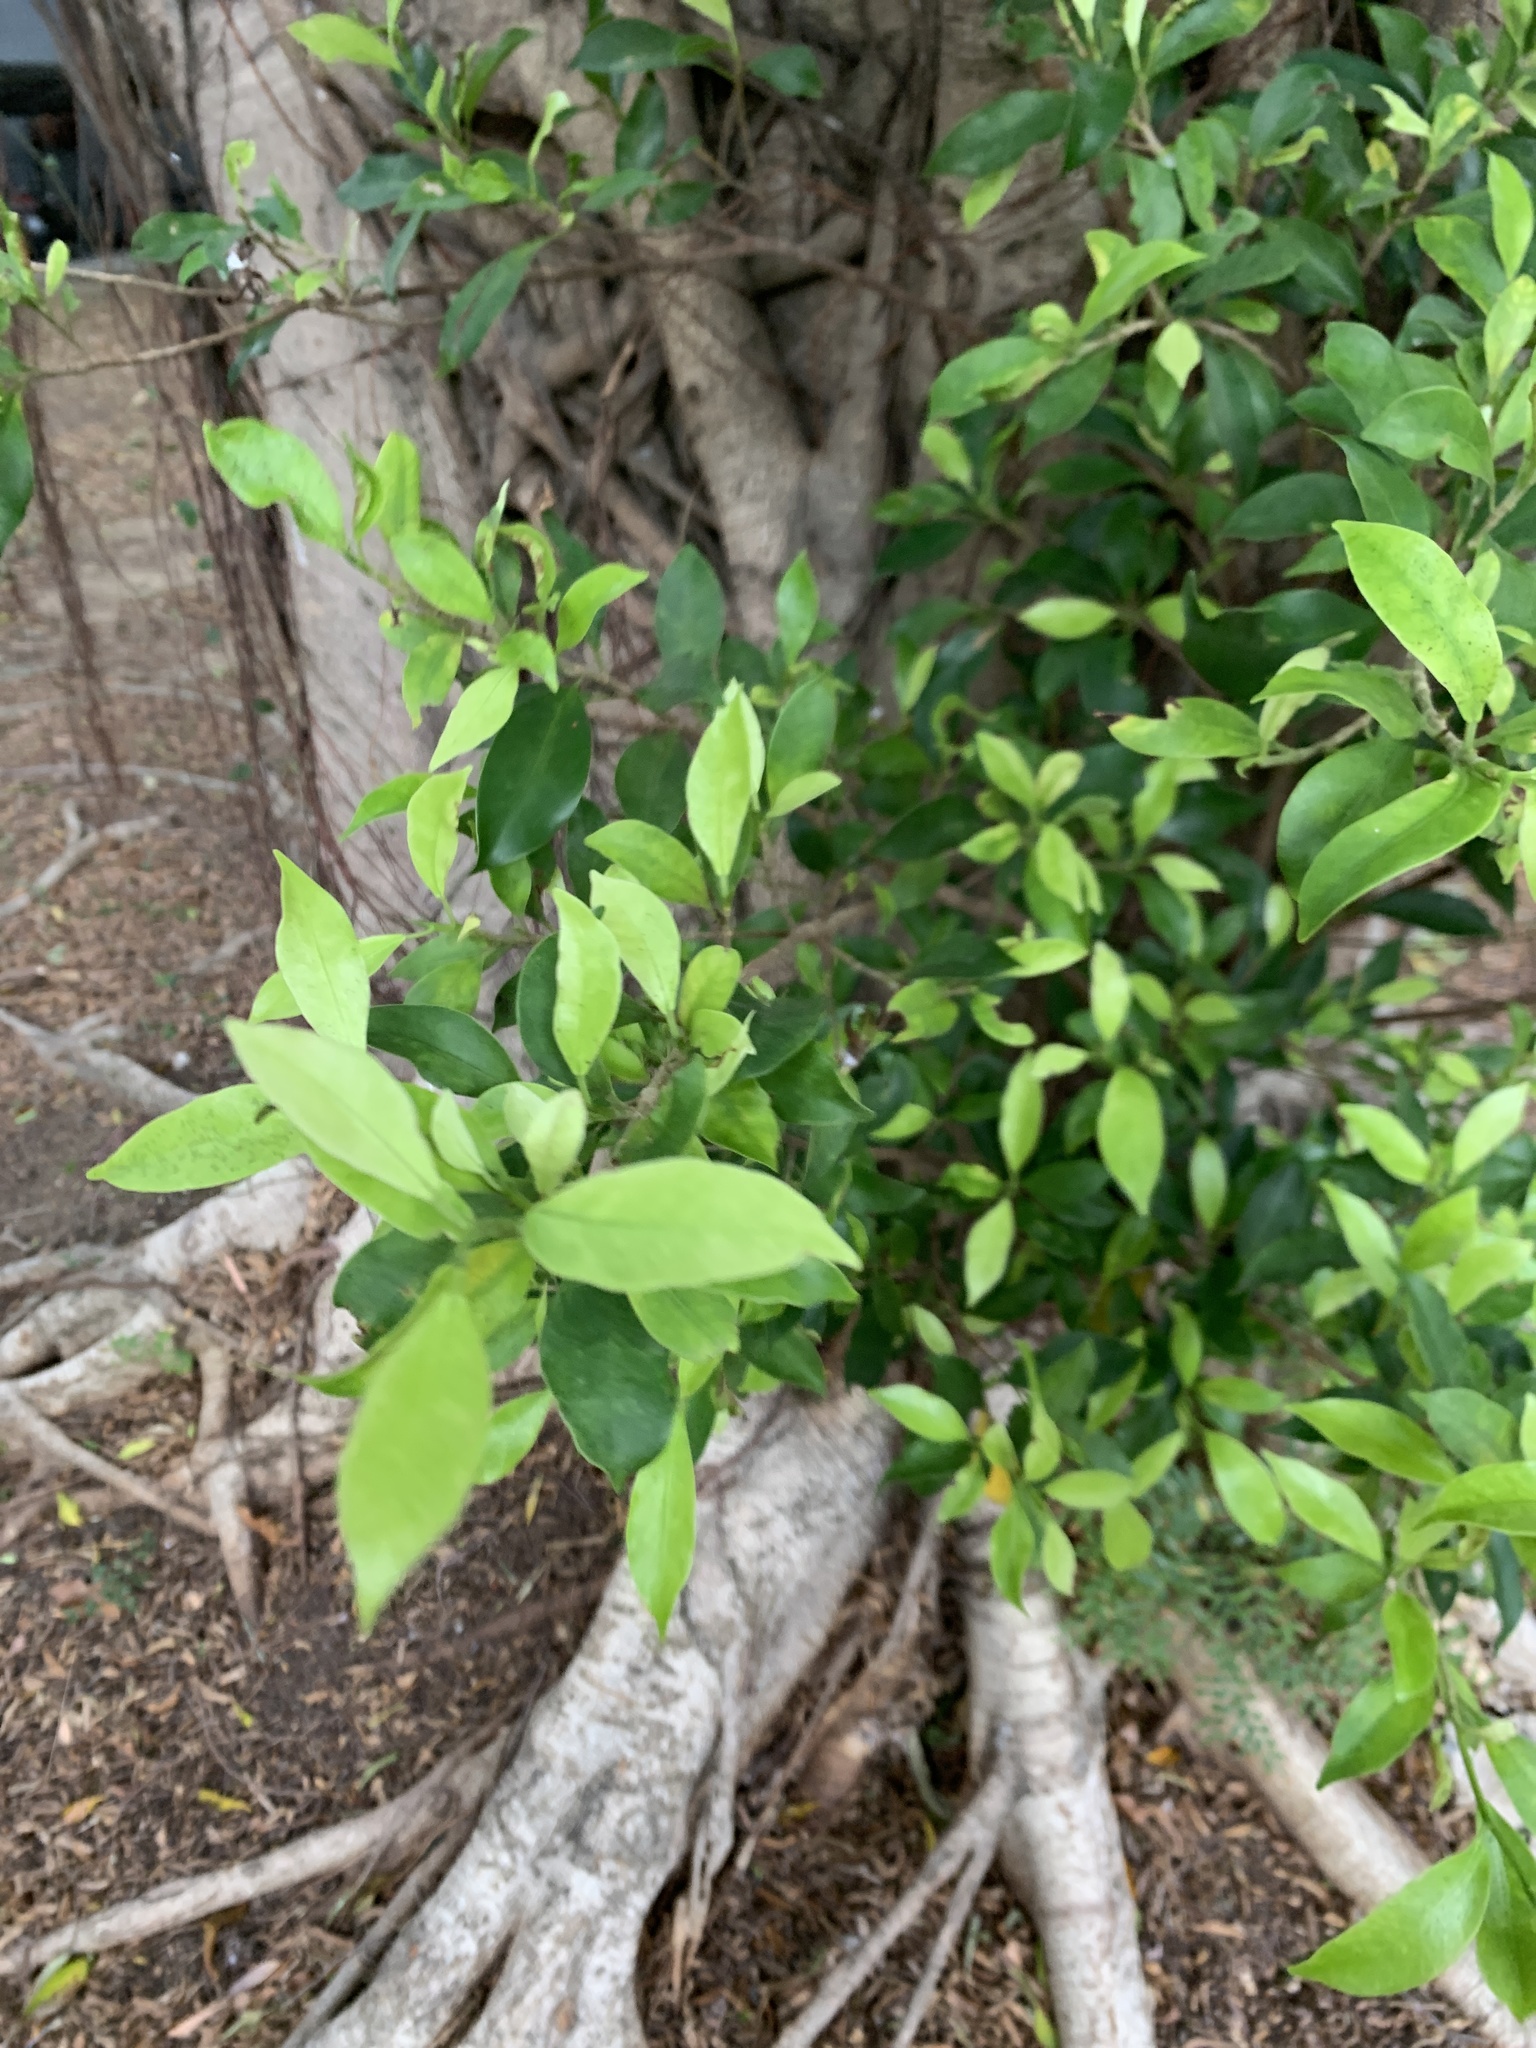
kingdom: Plantae
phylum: Tracheophyta
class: Magnoliopsida
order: Rosales
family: Moraceae
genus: Ficus
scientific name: Ficus microcarpa
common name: Chinese banyan
